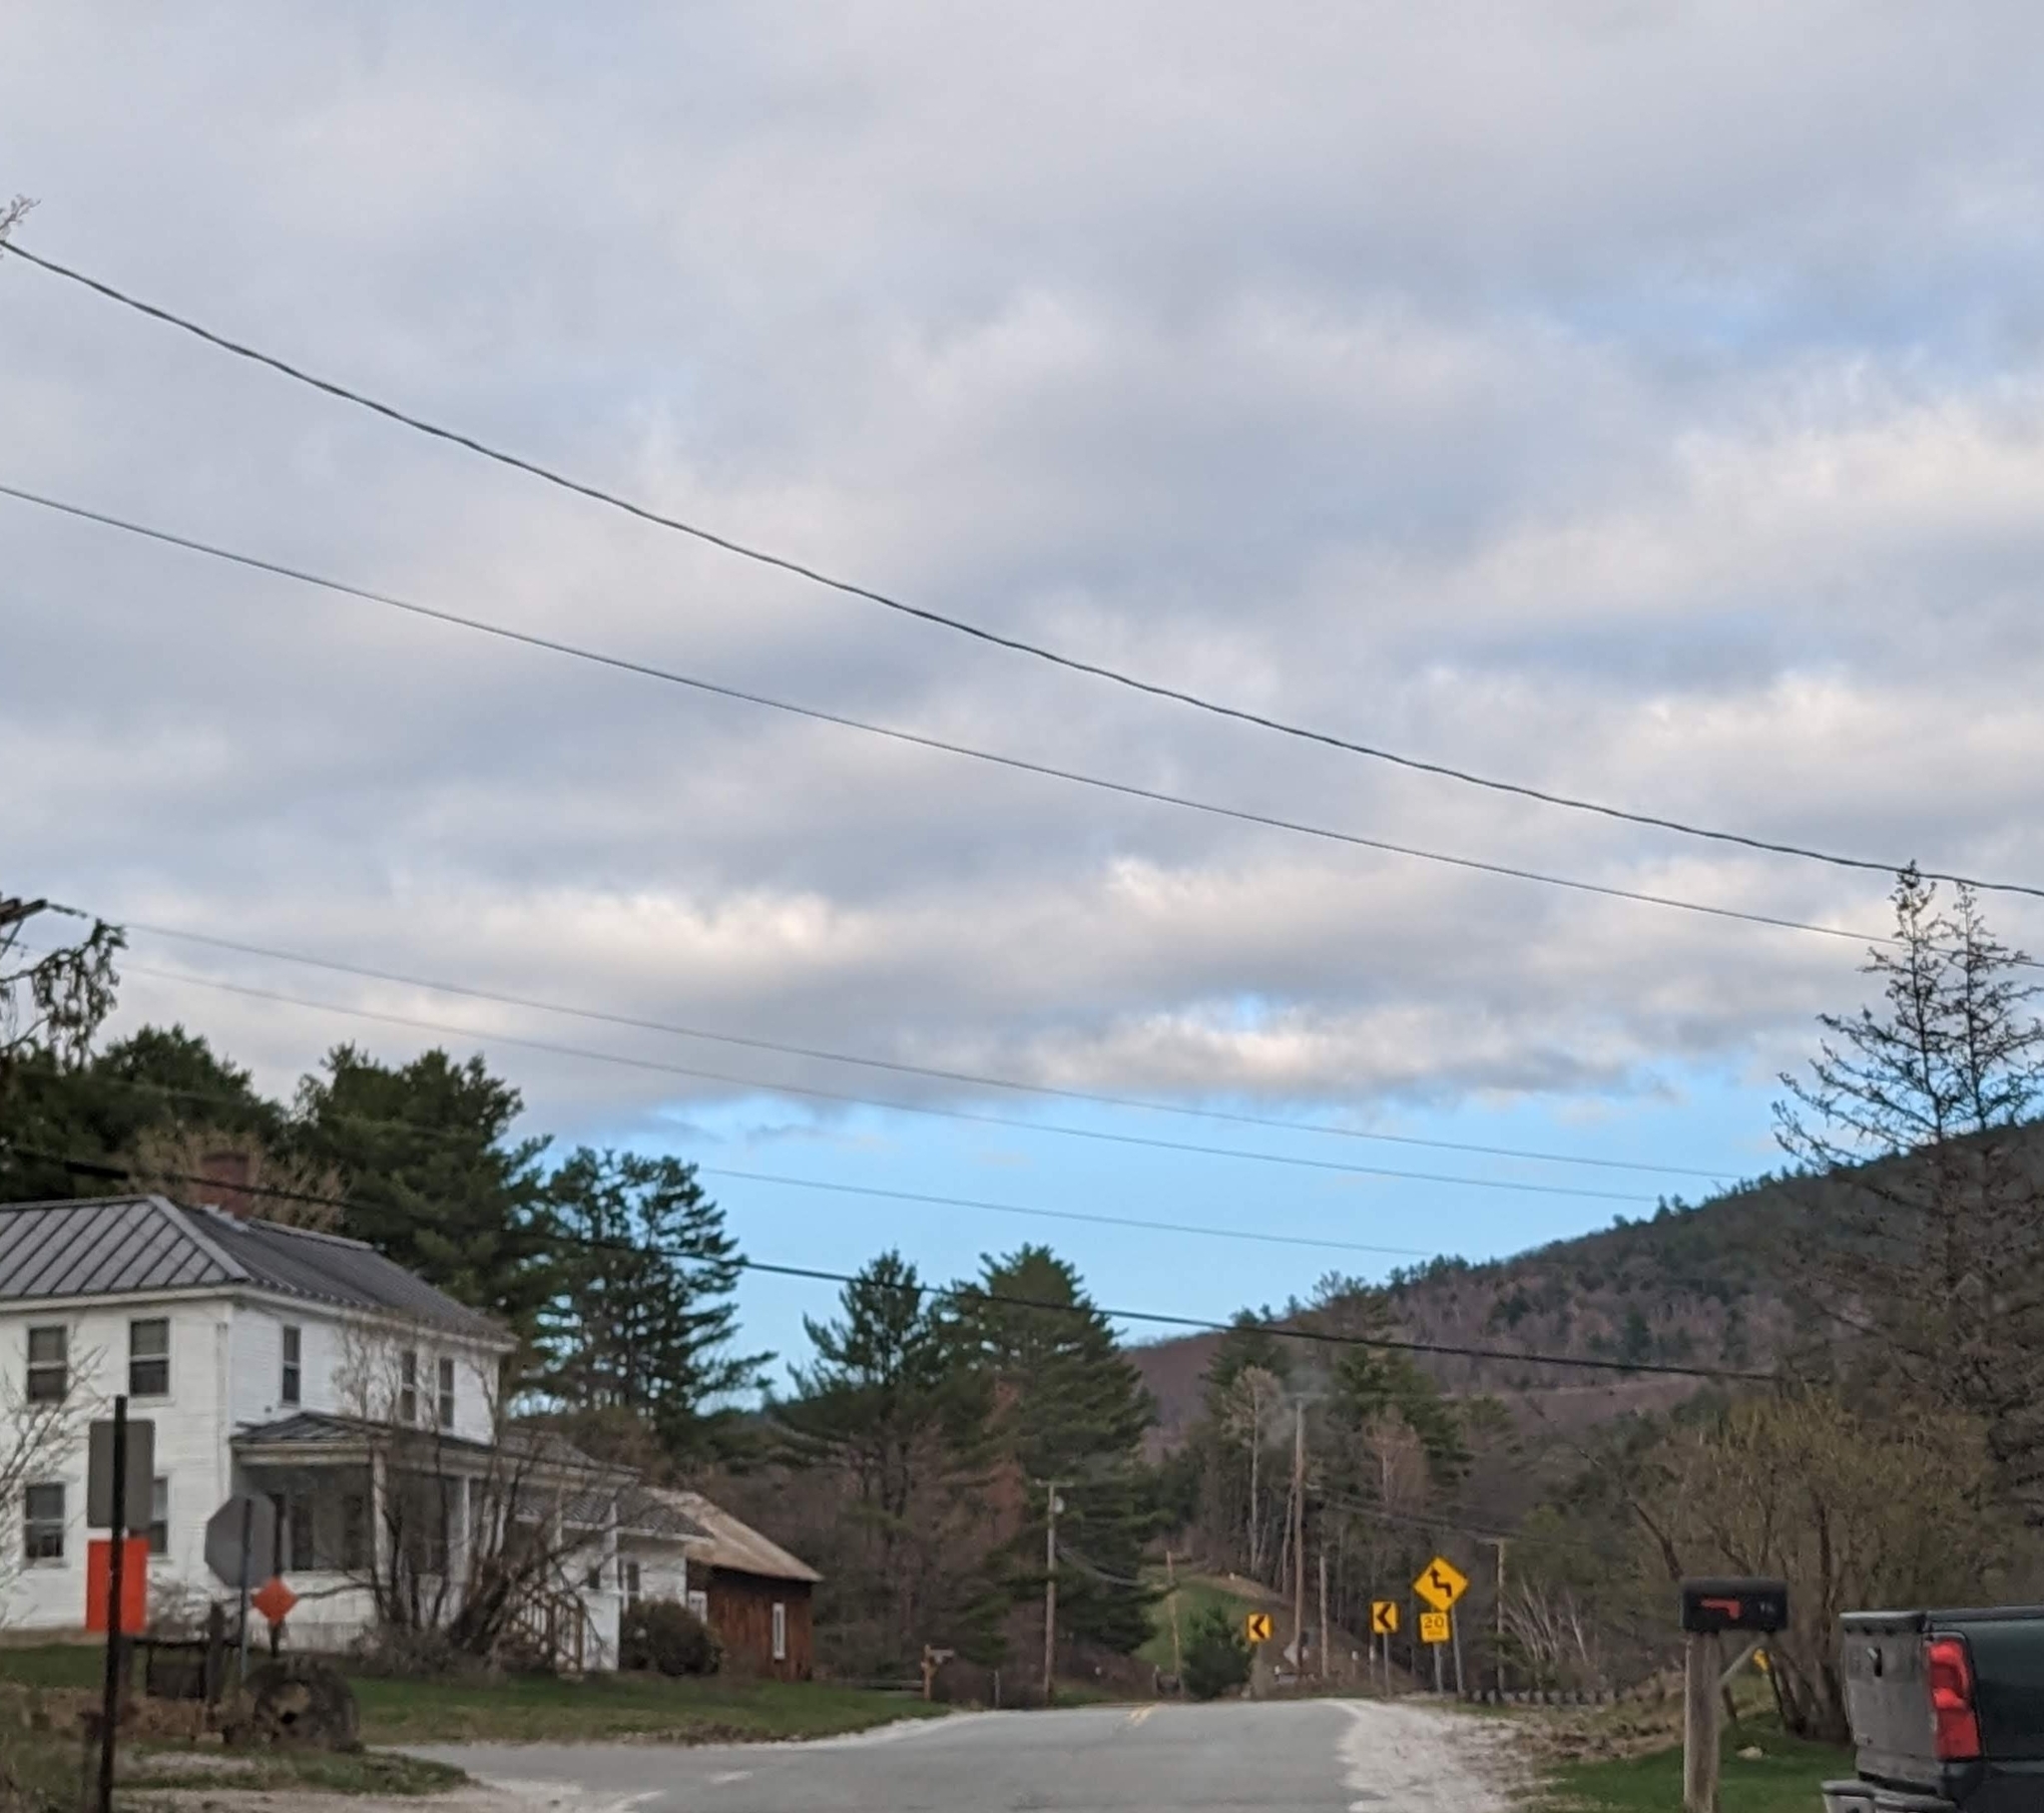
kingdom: Plantae
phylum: Tracheophyta
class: Pinopsida
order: Pinales
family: Pinaceae
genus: Pinus
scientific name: Pinus strobus
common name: Weymouth pine
